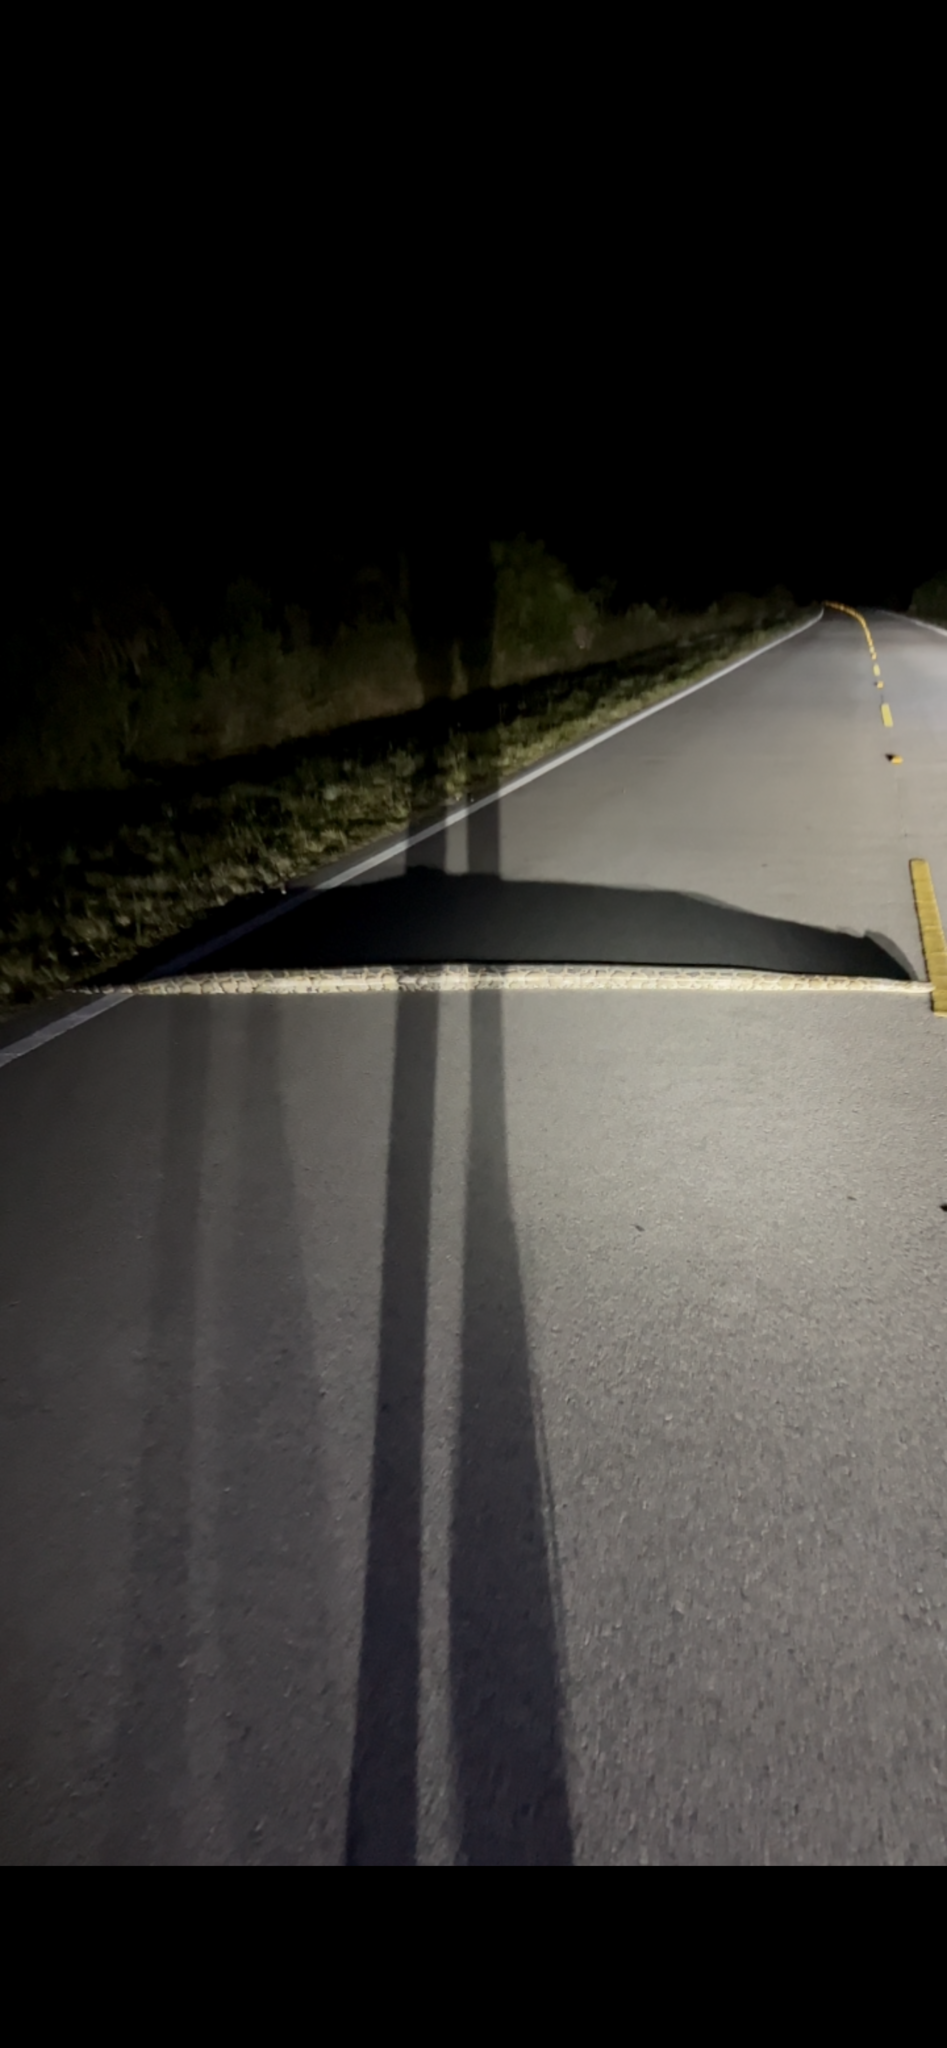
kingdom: Animalia
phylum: Chordata
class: Squamata
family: Pythonidae
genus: Python
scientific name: Python bivittatus
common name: Burmese python
